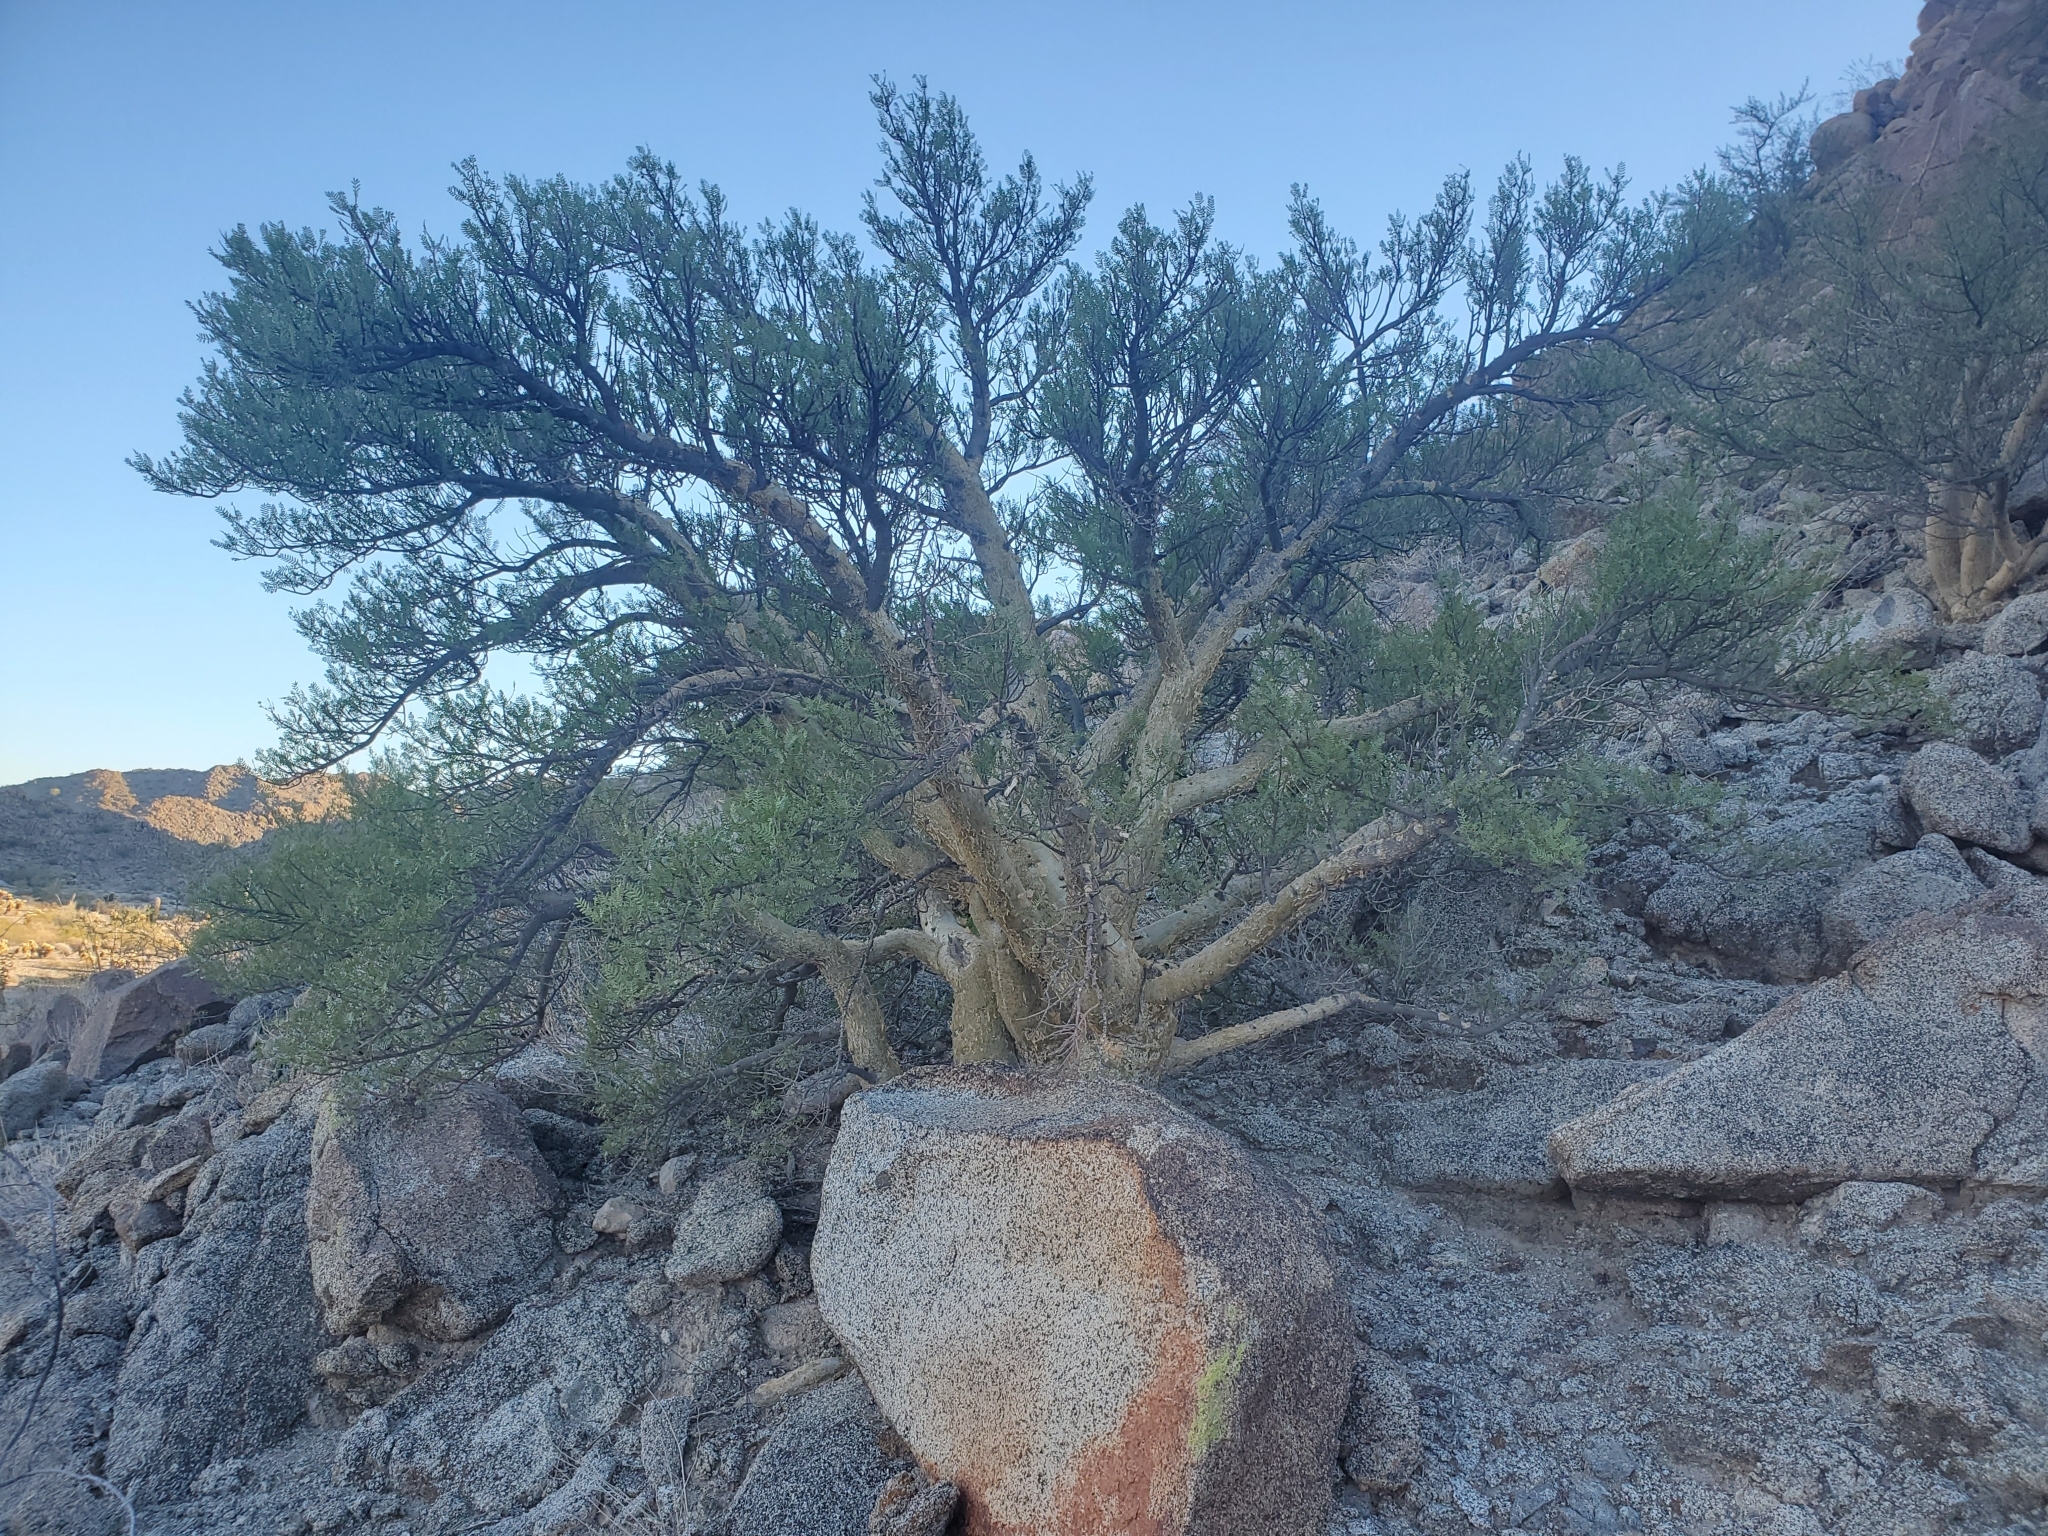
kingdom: Plantae
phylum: Tracheophyta
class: Magnoliopsida
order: Sapindales
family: Burseraceae
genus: Bursera
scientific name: Bursera microphylla
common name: Elephant tree
